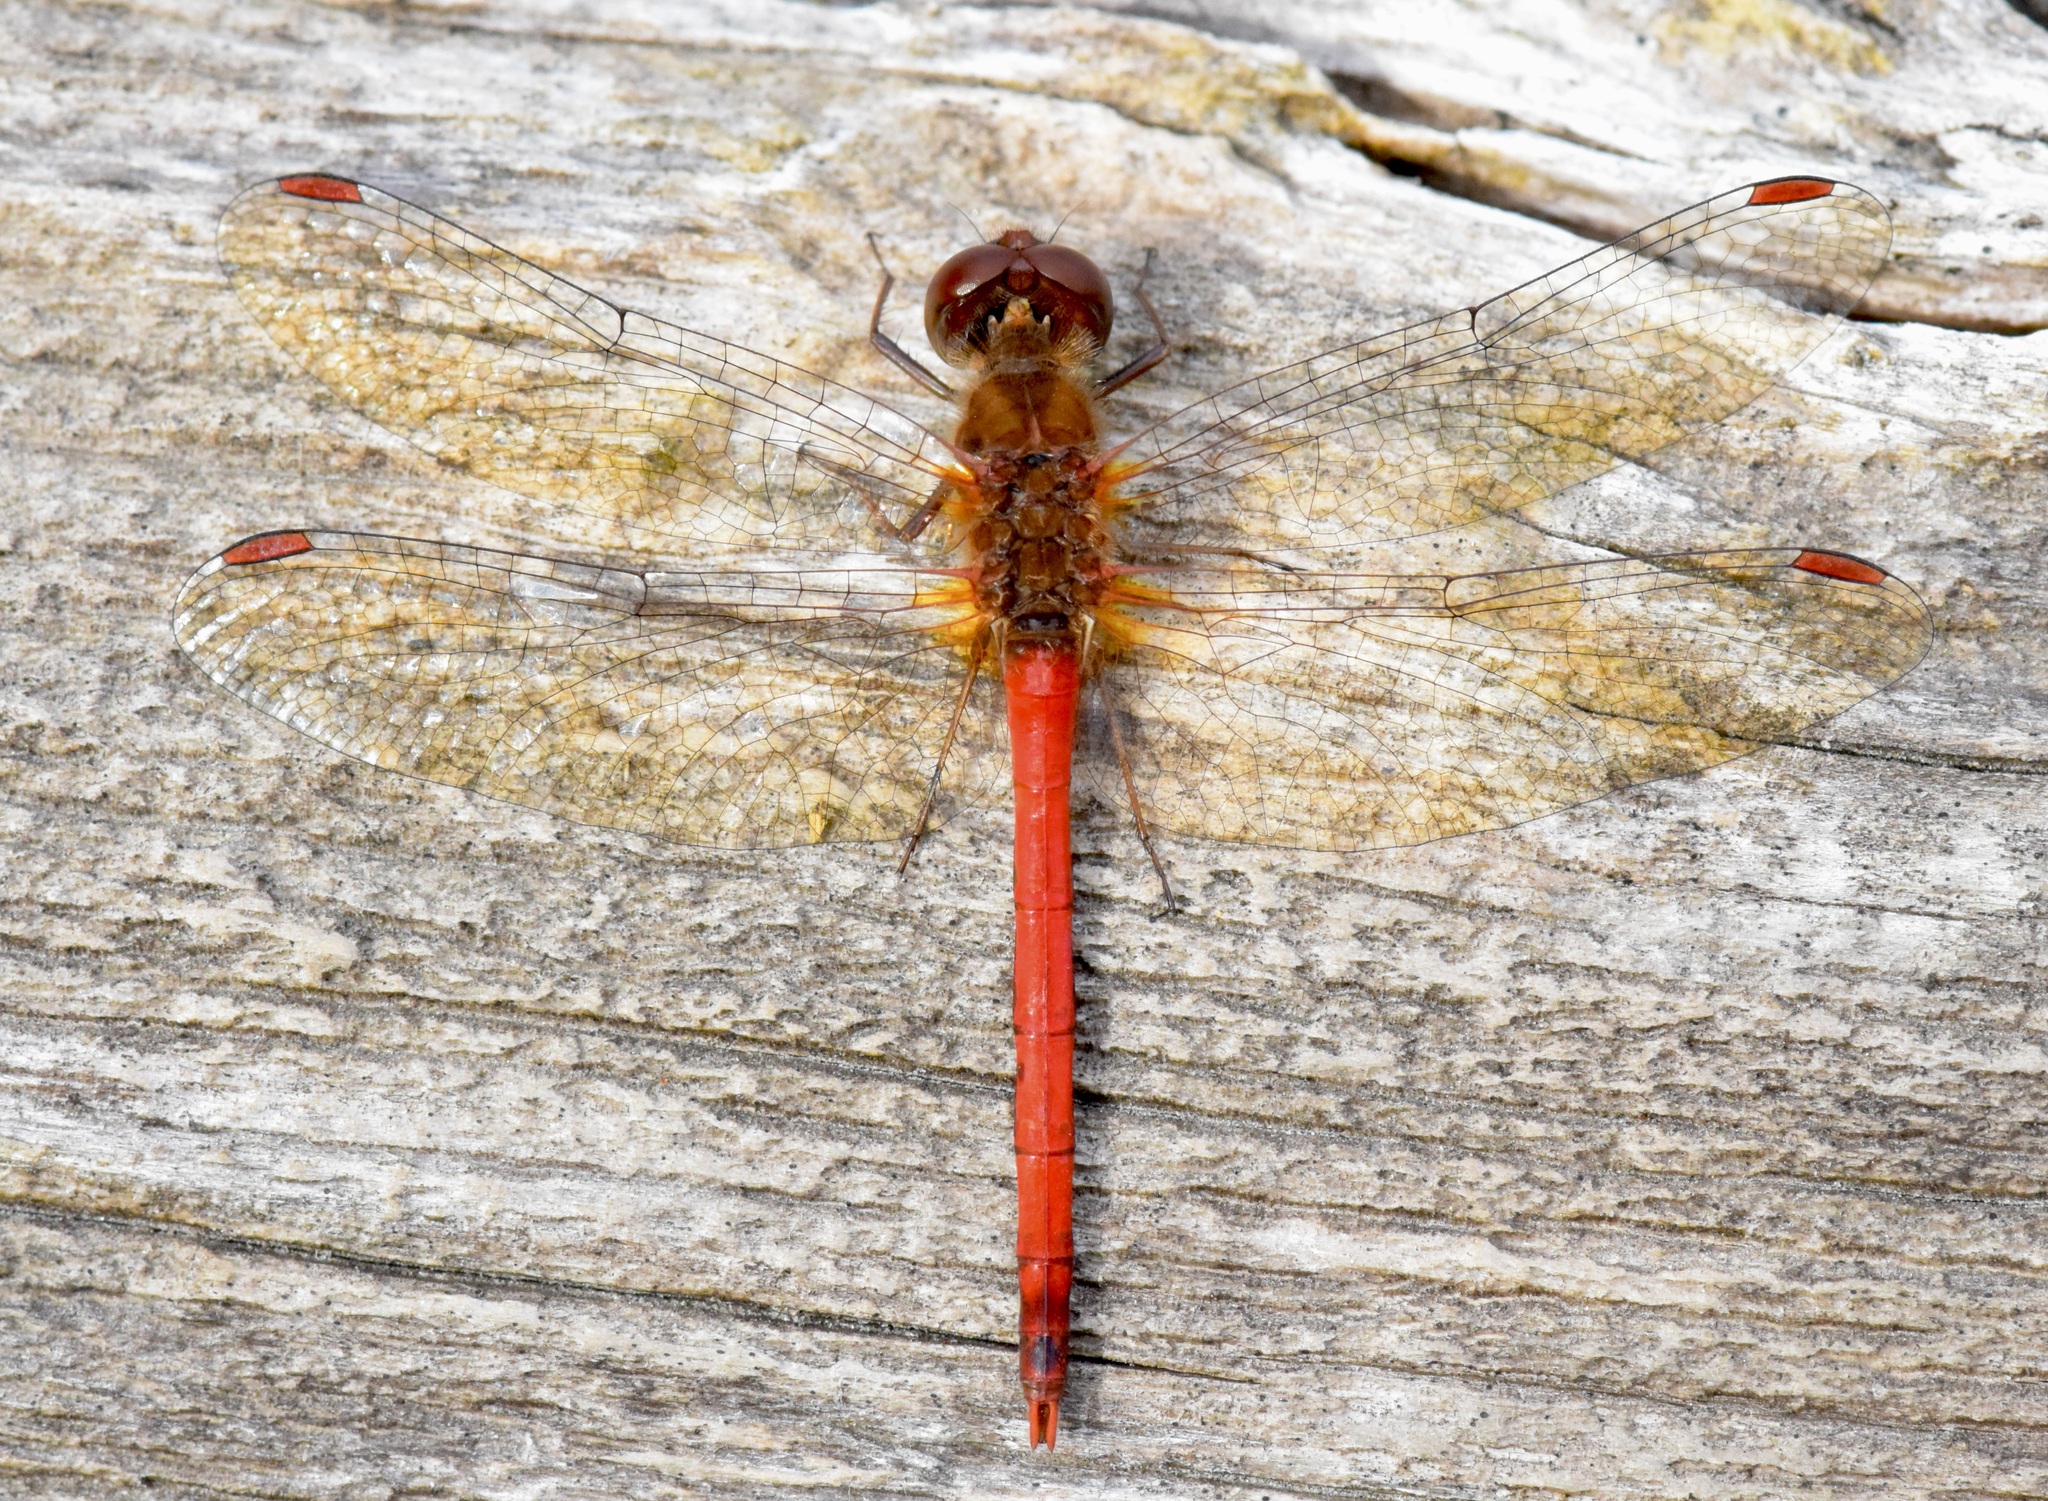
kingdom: Animalia
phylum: Arthropoda
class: Insecta
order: Odonata
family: Libellulidae
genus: Sympetrum
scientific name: Sympetrum vicinum
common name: Autumn meadowhawk
